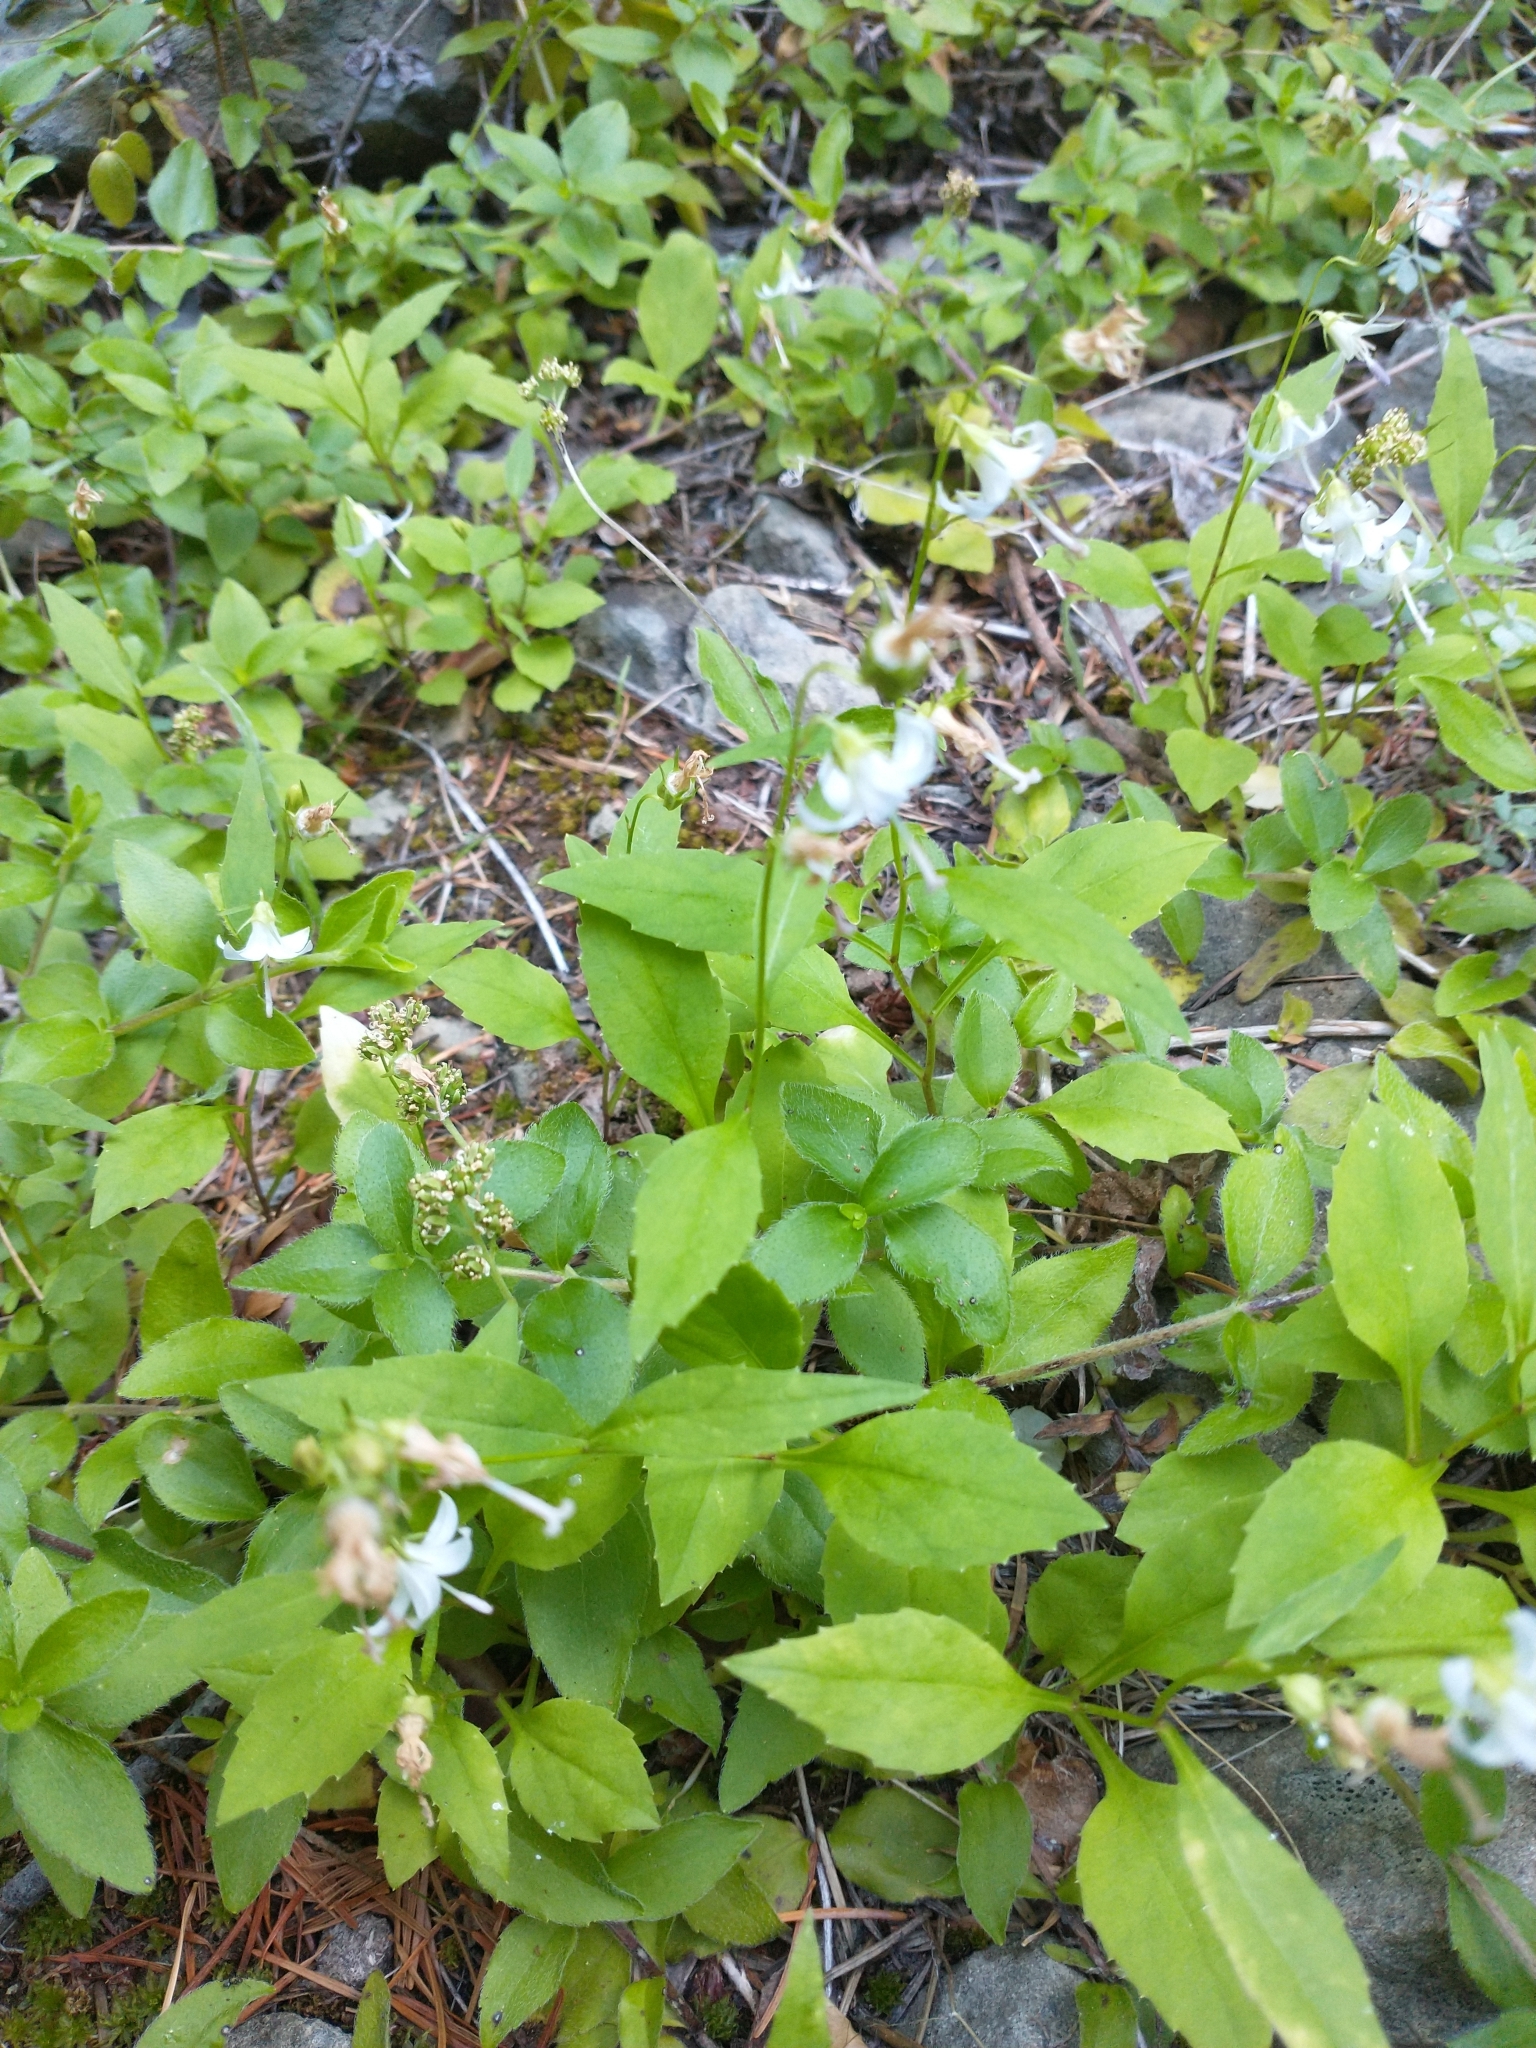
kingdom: Plantae
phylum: Tracheophyta
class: Magnoliopsida
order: Asterales
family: Campanulaceae
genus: Campanula
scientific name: Campanula scouleri
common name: Scouler's harebell
